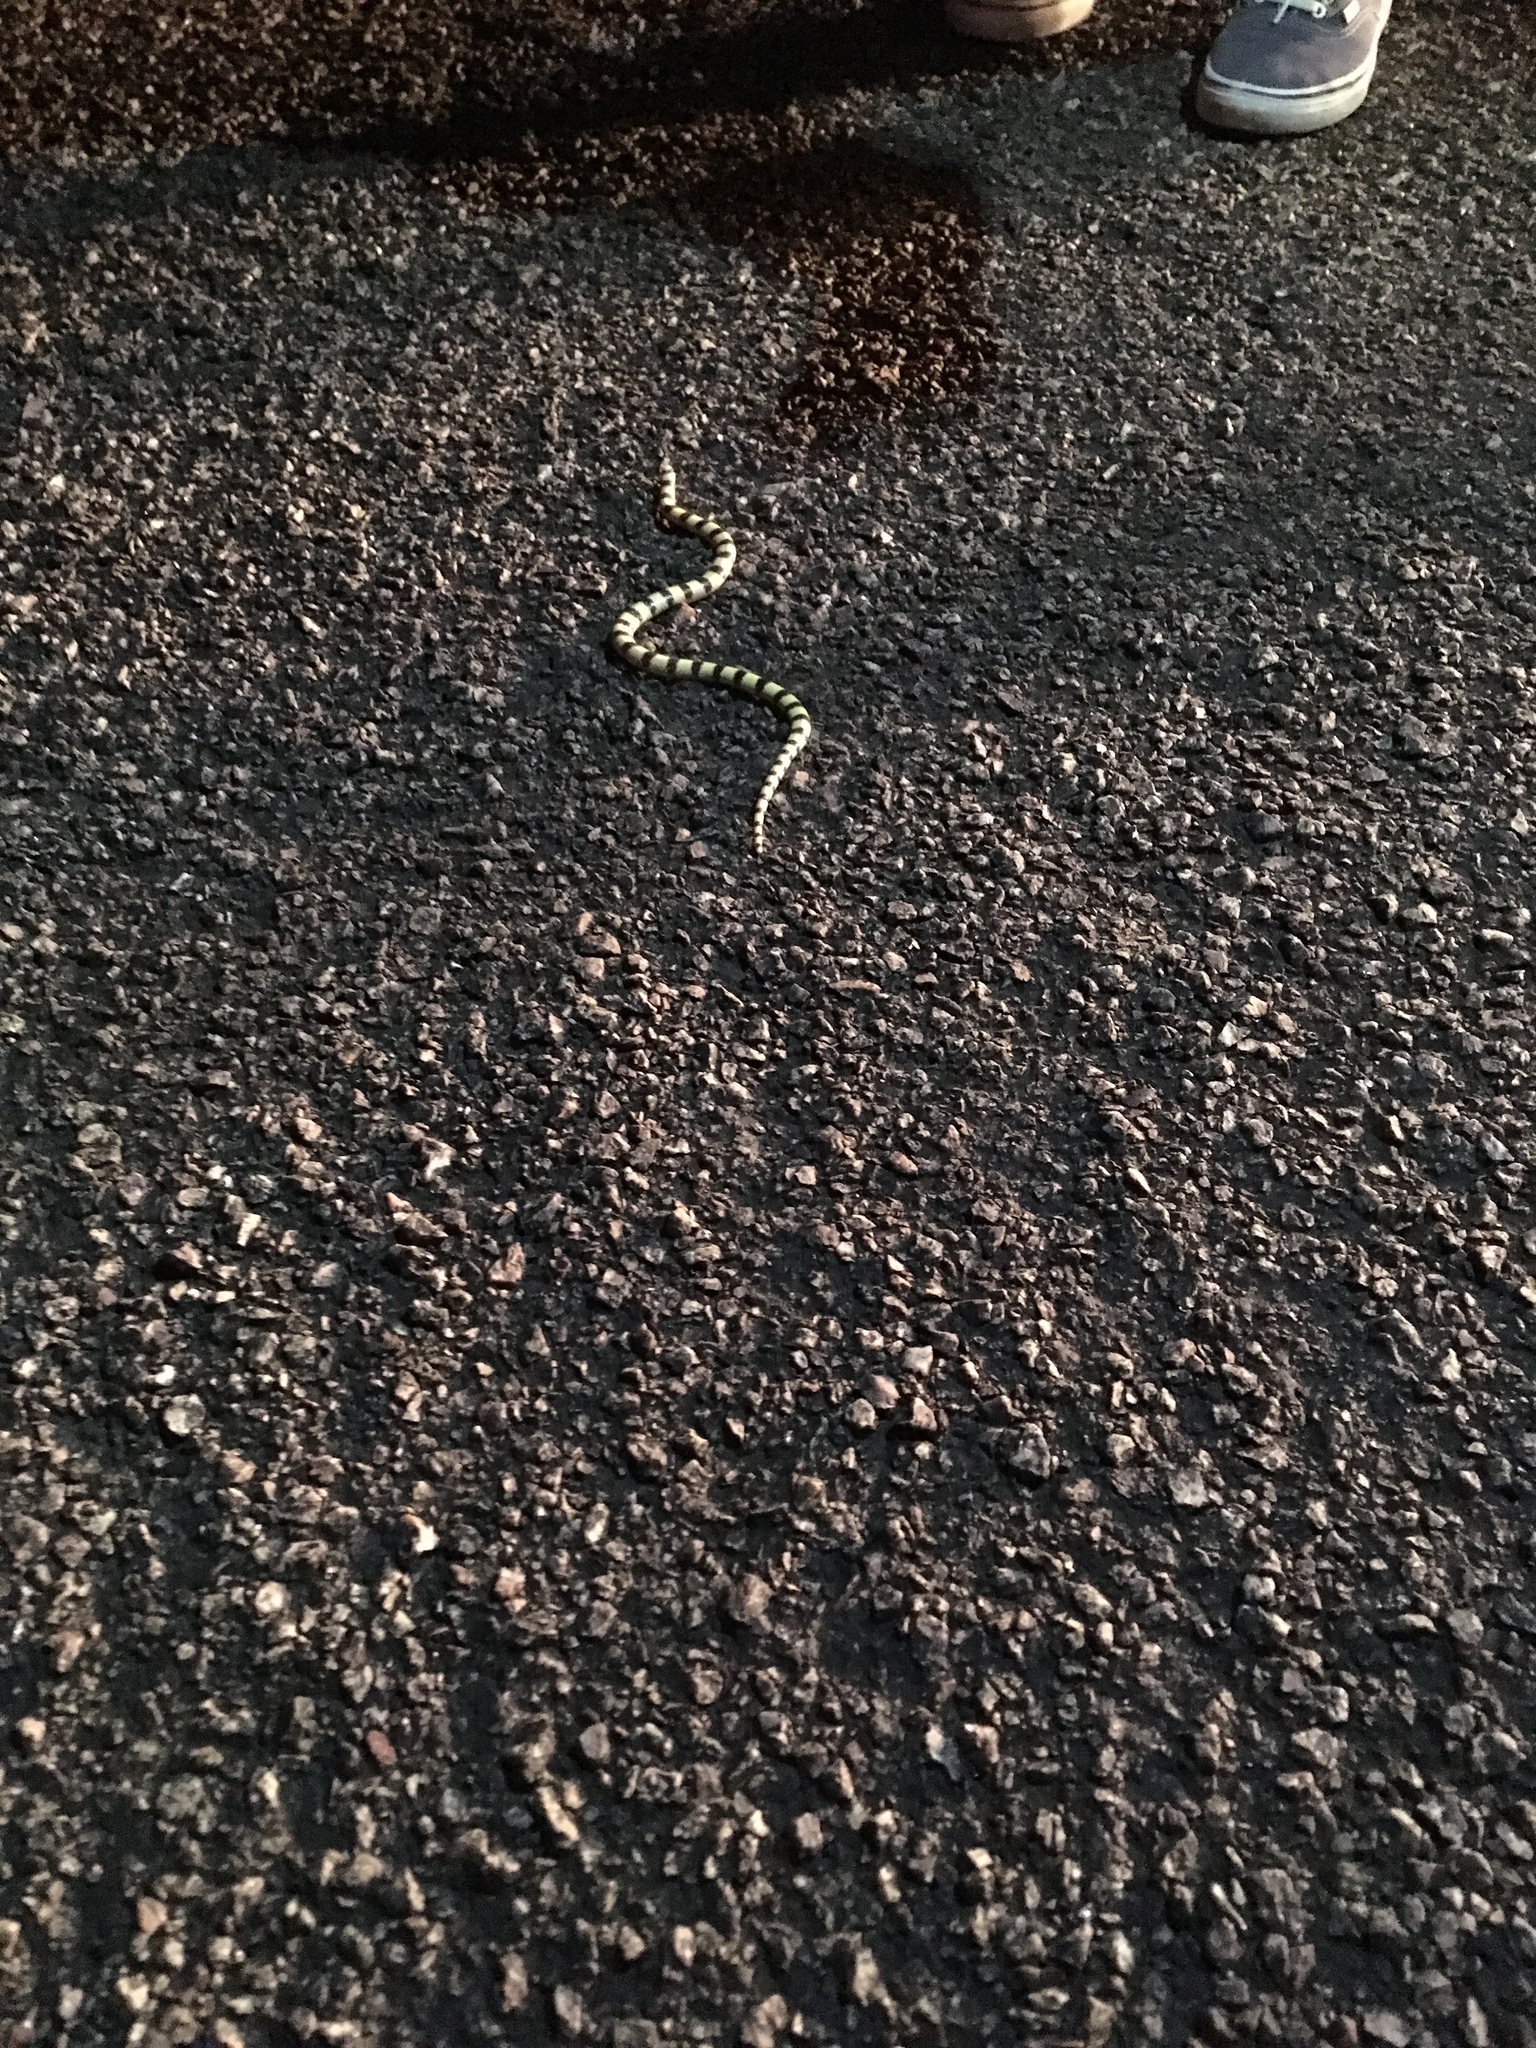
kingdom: Animalia
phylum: Chordata
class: Squamata
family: Colubridae
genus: Sonora
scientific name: Sonora occipitalis
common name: Western shovelnose snake
